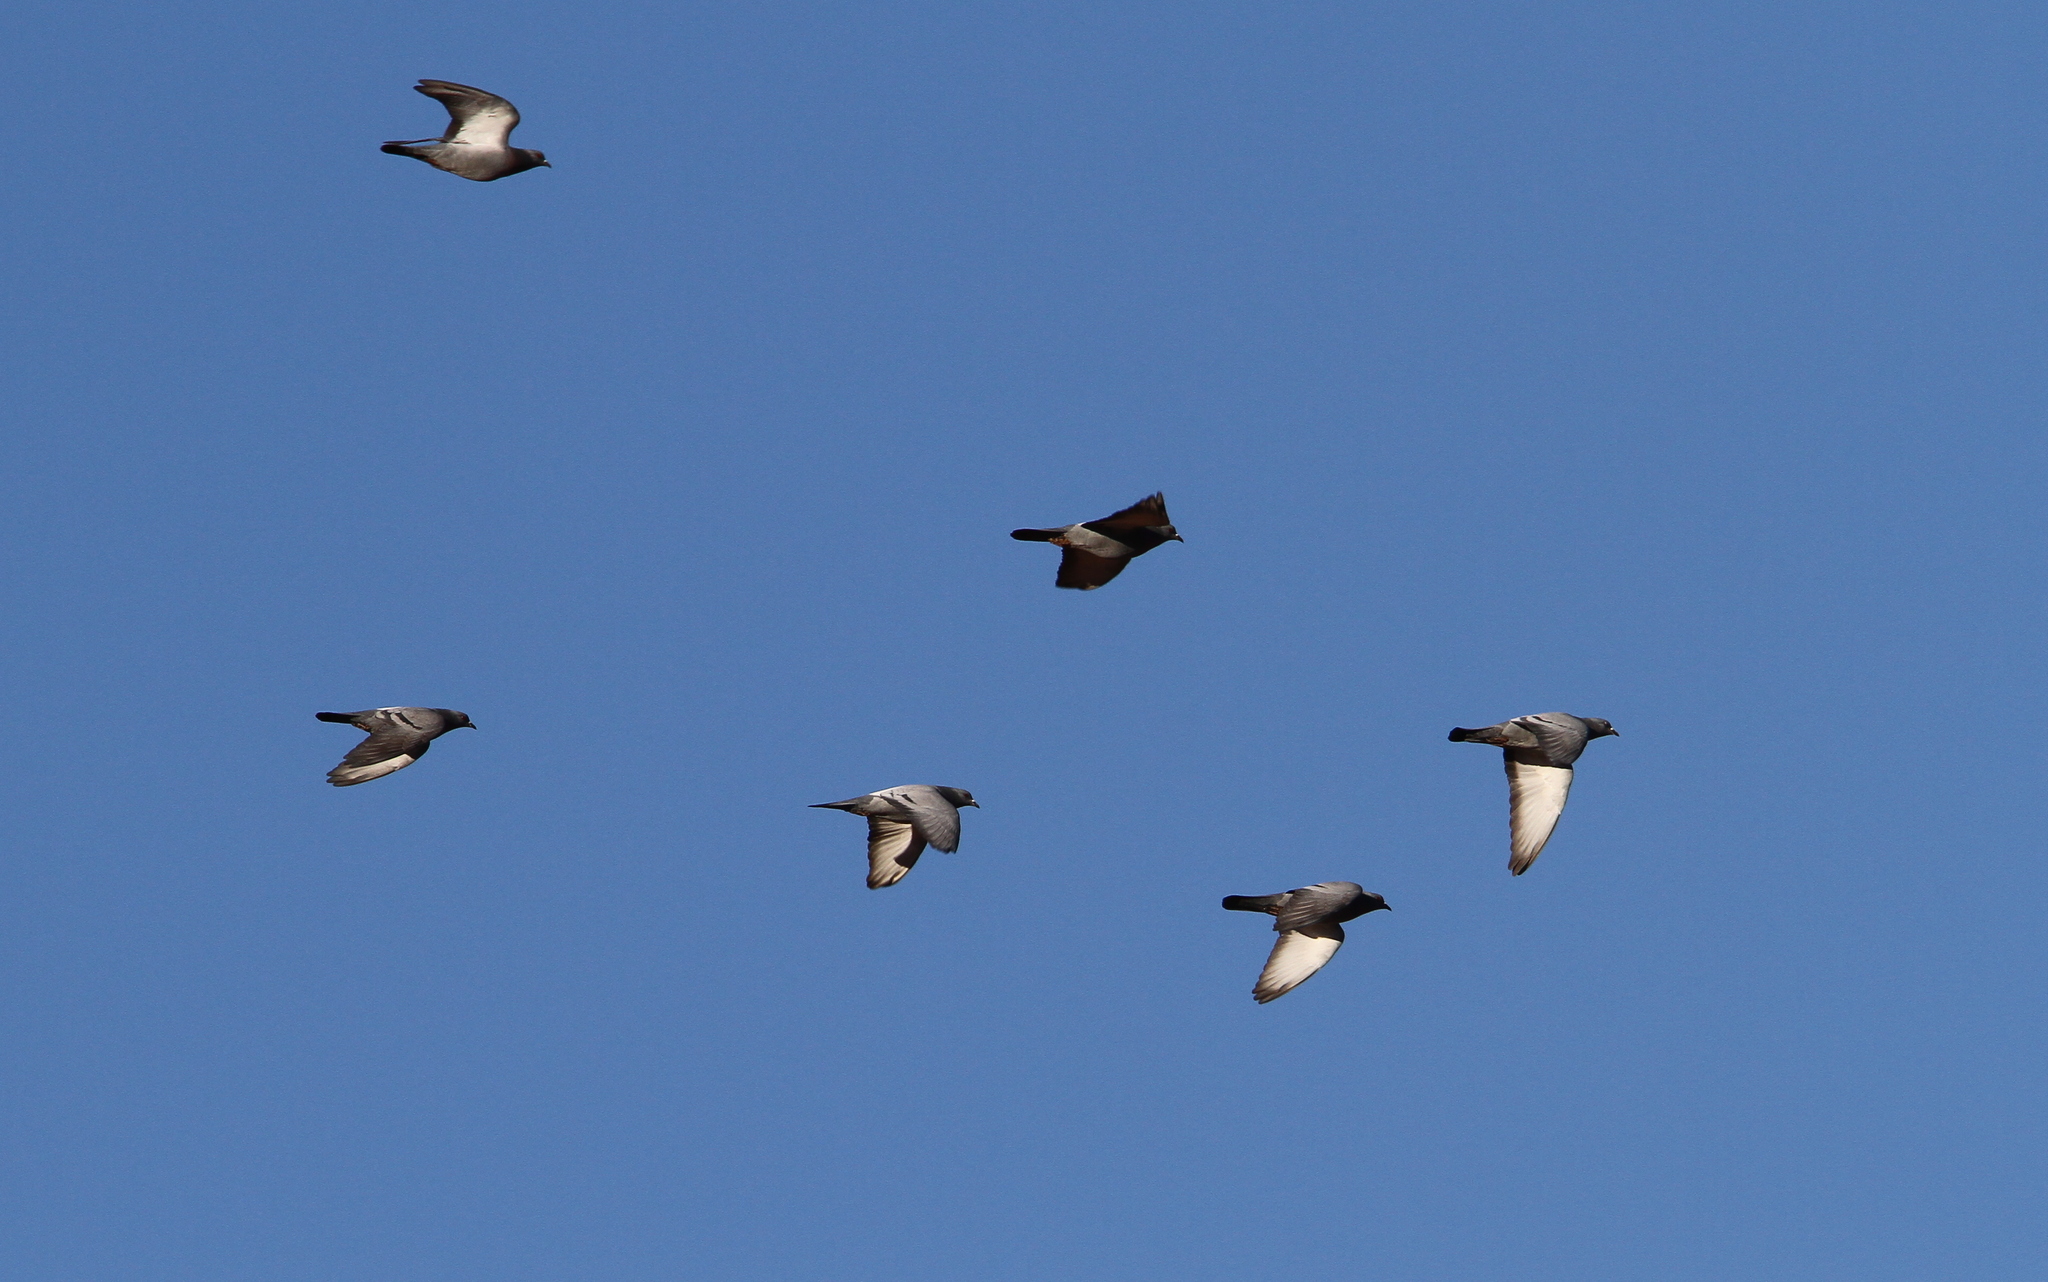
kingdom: Animalia
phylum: Chordata
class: Aves
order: Columbiformes
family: Columbidae
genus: Columba
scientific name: Columba livia
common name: Rock pigeon
